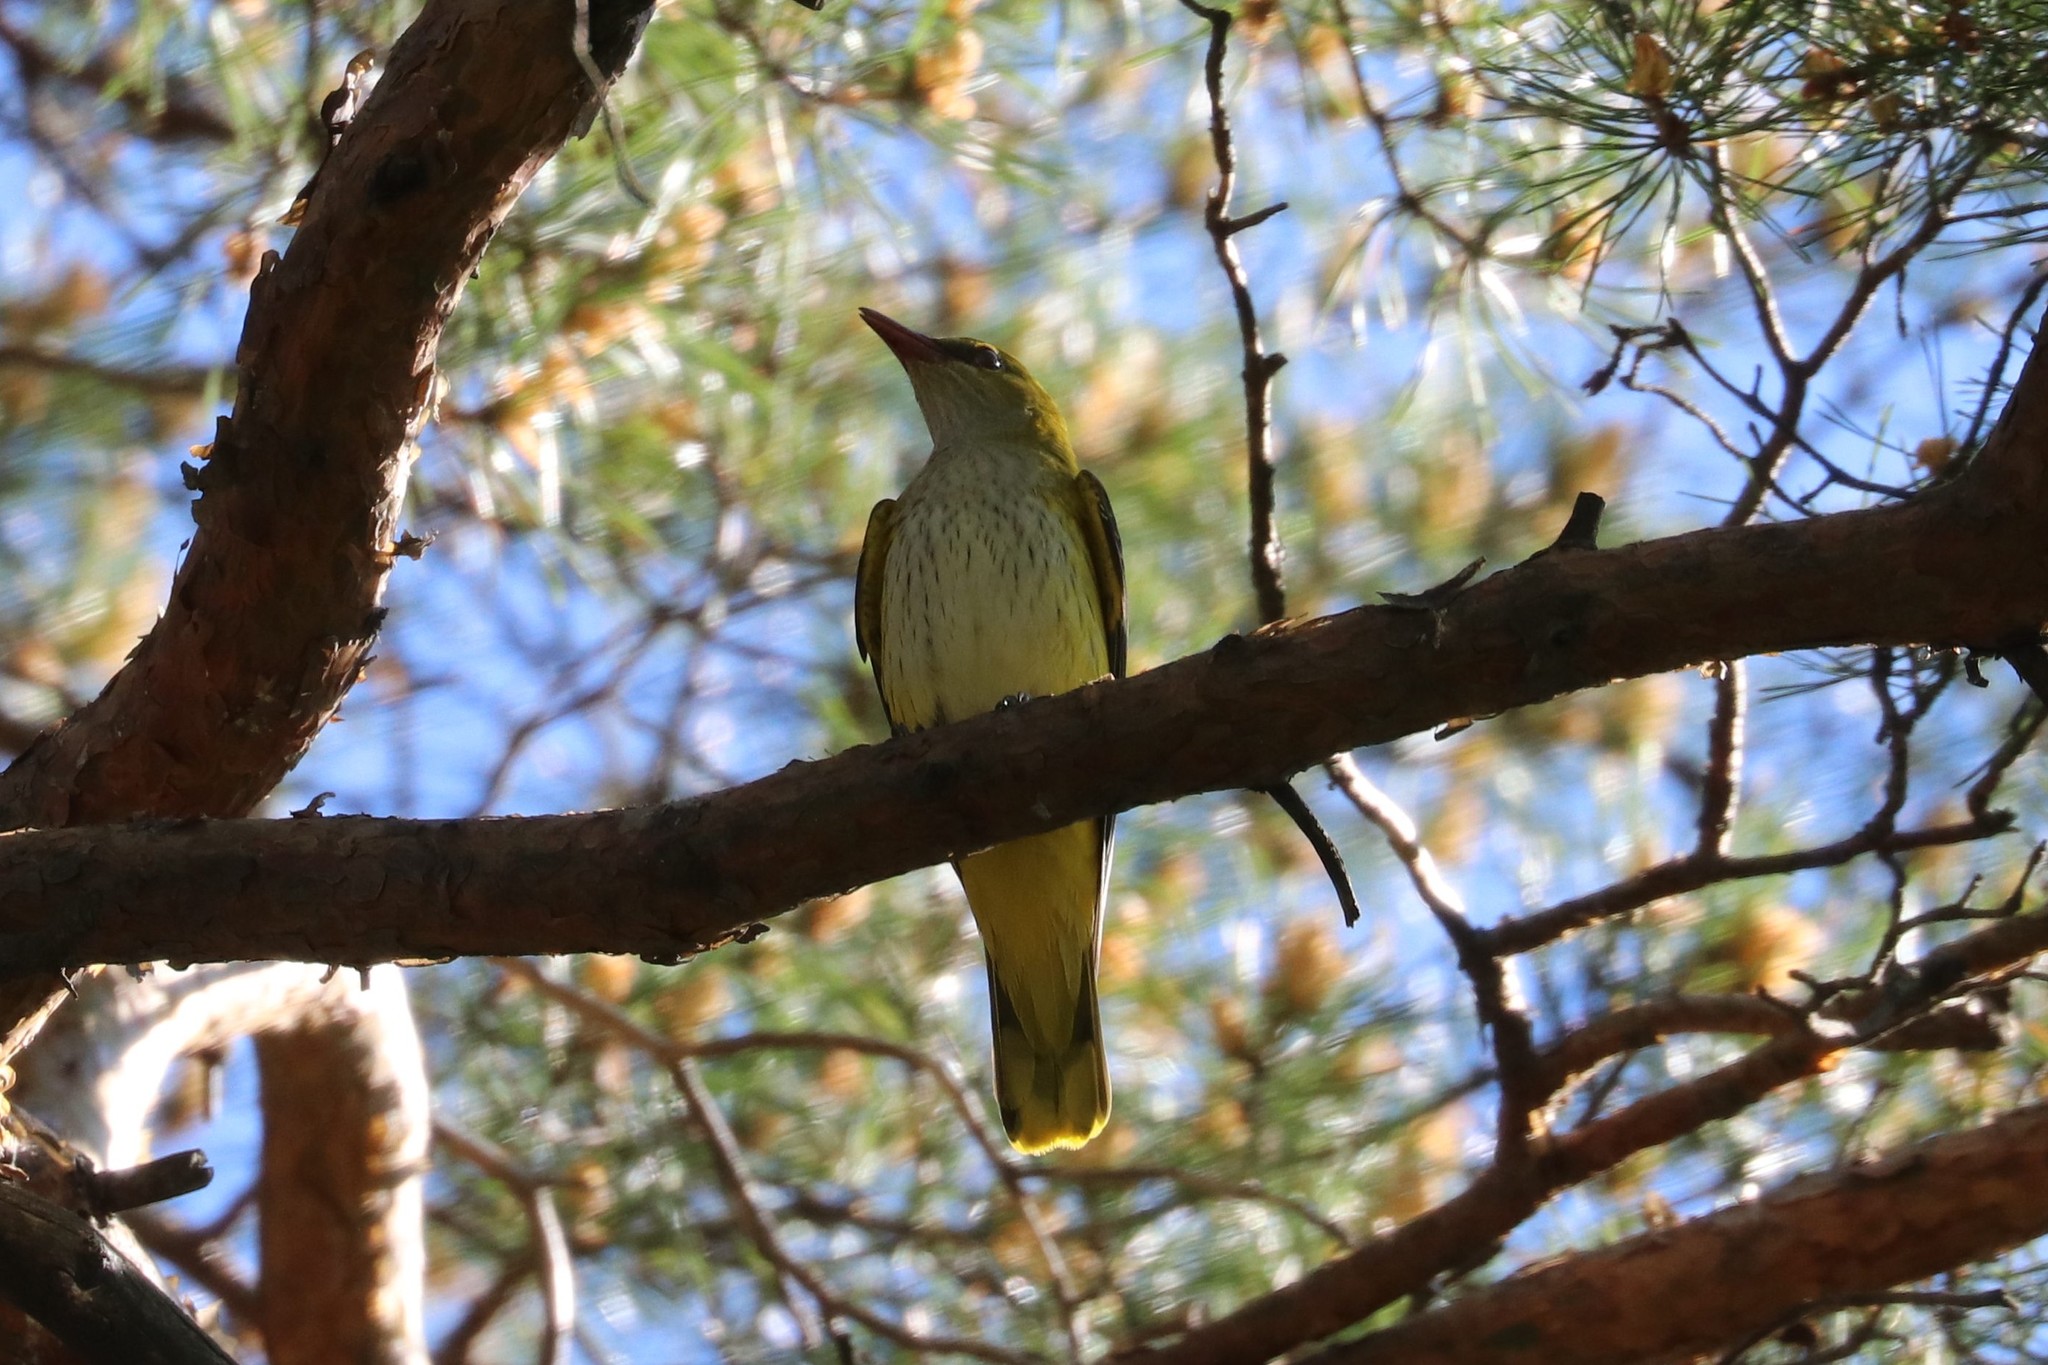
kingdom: Animalia
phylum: Chordata
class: Aves
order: Passeriformes
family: Oriolidae
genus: Oriolus
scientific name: Oriolus oriolus
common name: Eurasian golden oriole
